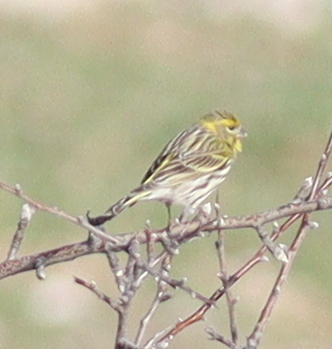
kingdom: Animalia
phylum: Chordata
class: Aves
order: Passeriformes
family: Fringillidae
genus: Serinus
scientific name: Serinus serinus
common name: European serin
